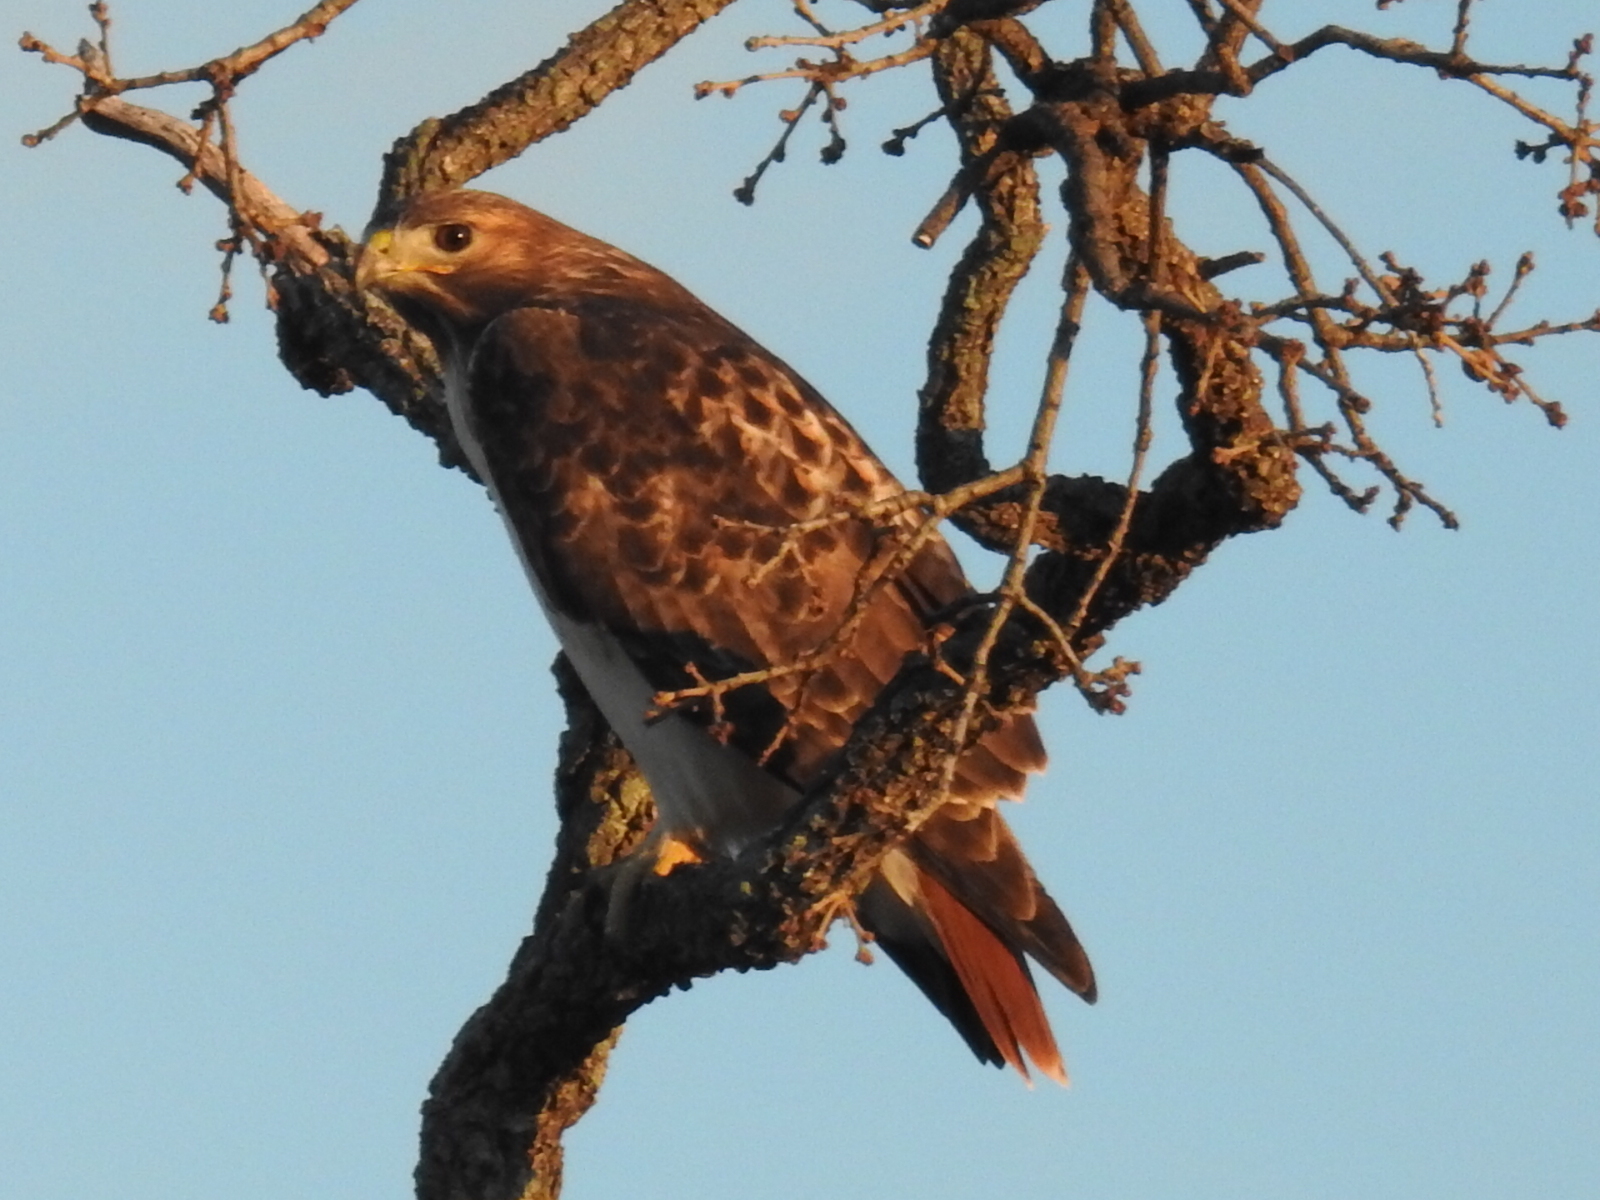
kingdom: Animalia
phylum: Chordata
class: Aves
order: Accipitriformes
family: Accipitridae
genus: Buteo
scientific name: Buteo jamaicensis
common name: Red-tailed hawk
